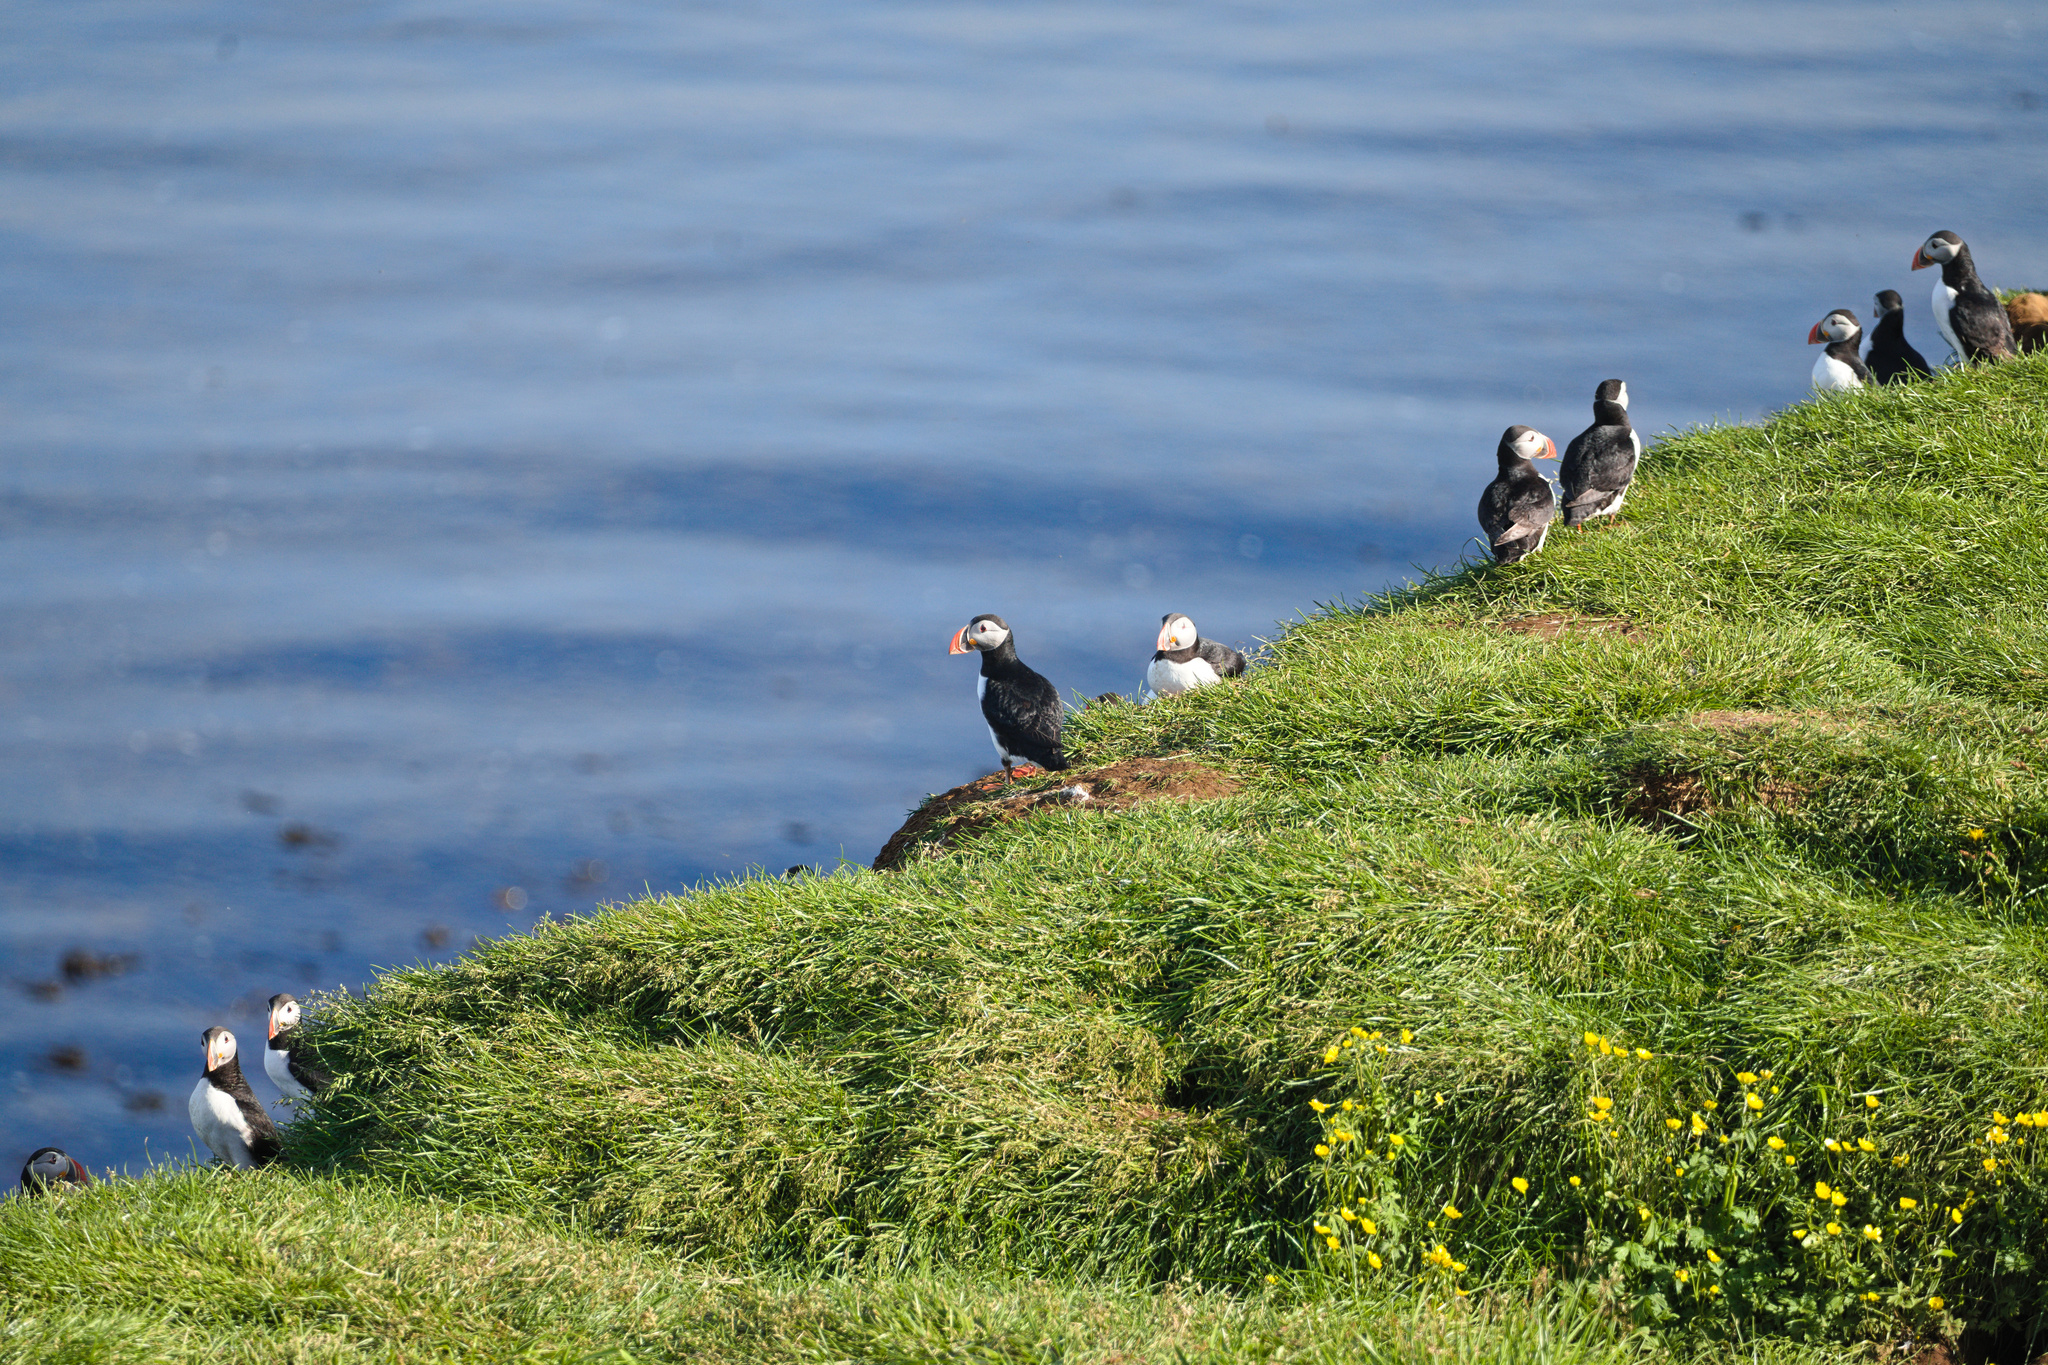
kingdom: Animalia
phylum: Chordata
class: Aves
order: Charadriiformes
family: Alcidae
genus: Fratercula
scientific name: Fratercula arctica
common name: Atlantic puffin
